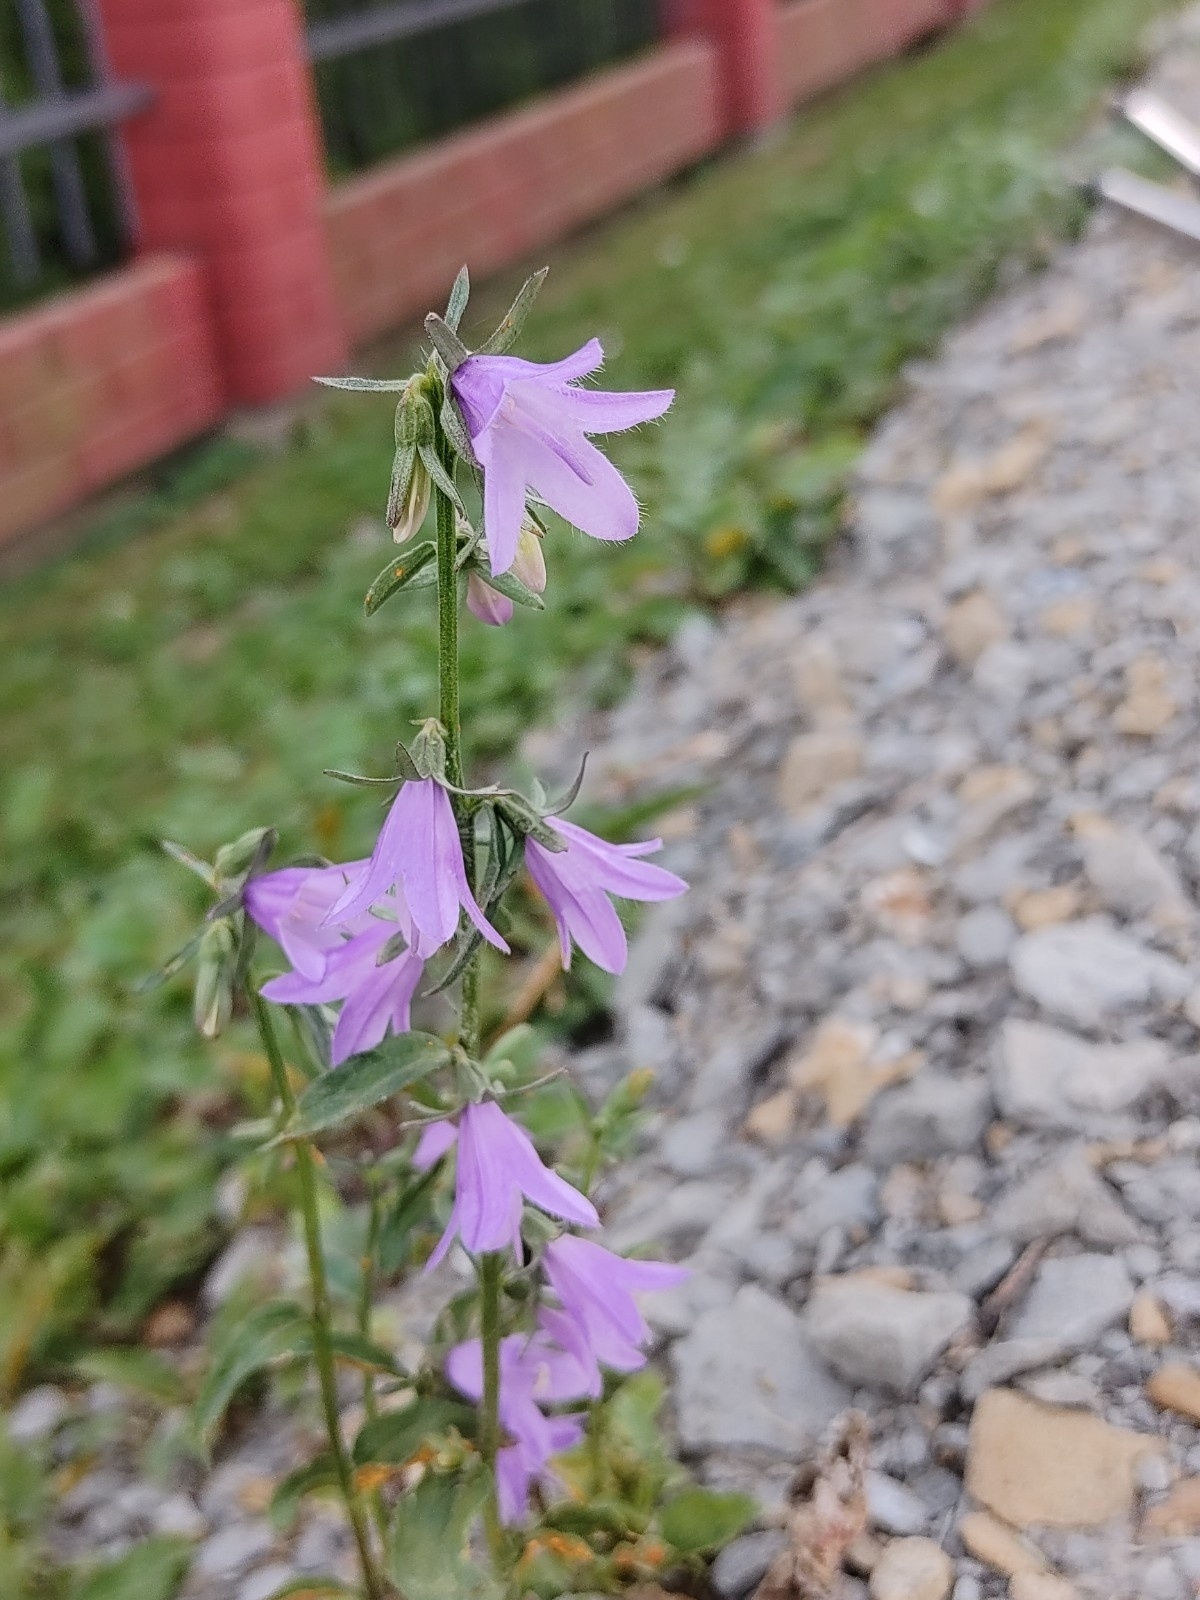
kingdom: Plantae
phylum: Tracheophyta
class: Magnoliopsida
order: Asterales
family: Campanulaceae
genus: Campanula
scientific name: Campanula rapunculoides
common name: Creeping bellflower
